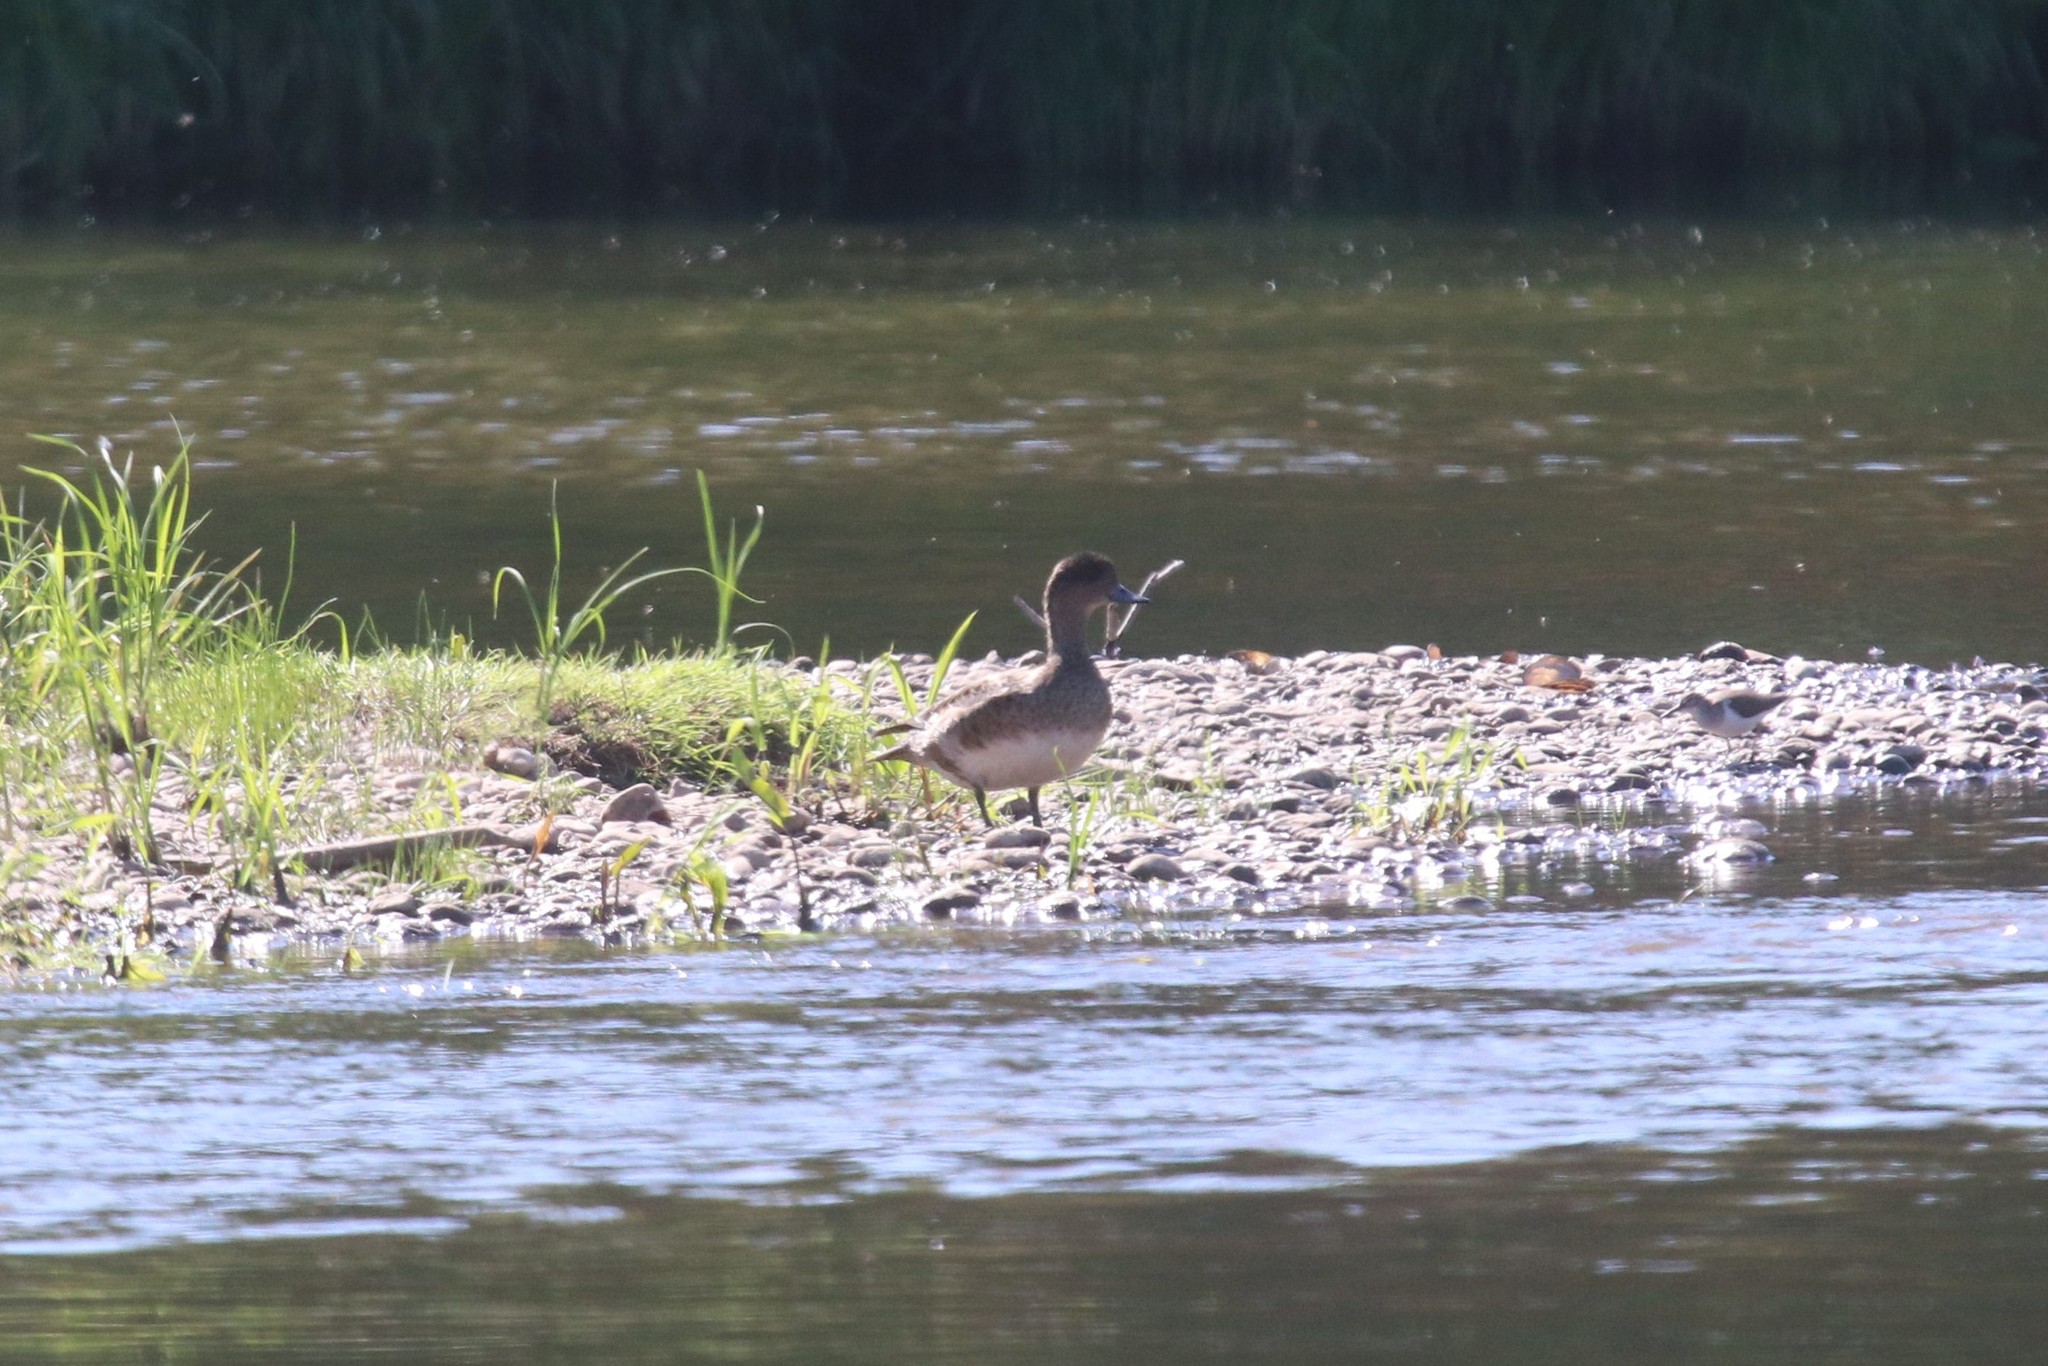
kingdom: Animalia
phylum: Chordata
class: Aves
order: Anseriformes
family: Anatidae
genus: Mareca
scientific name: Mareca penelope
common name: Eurasian wigeon
